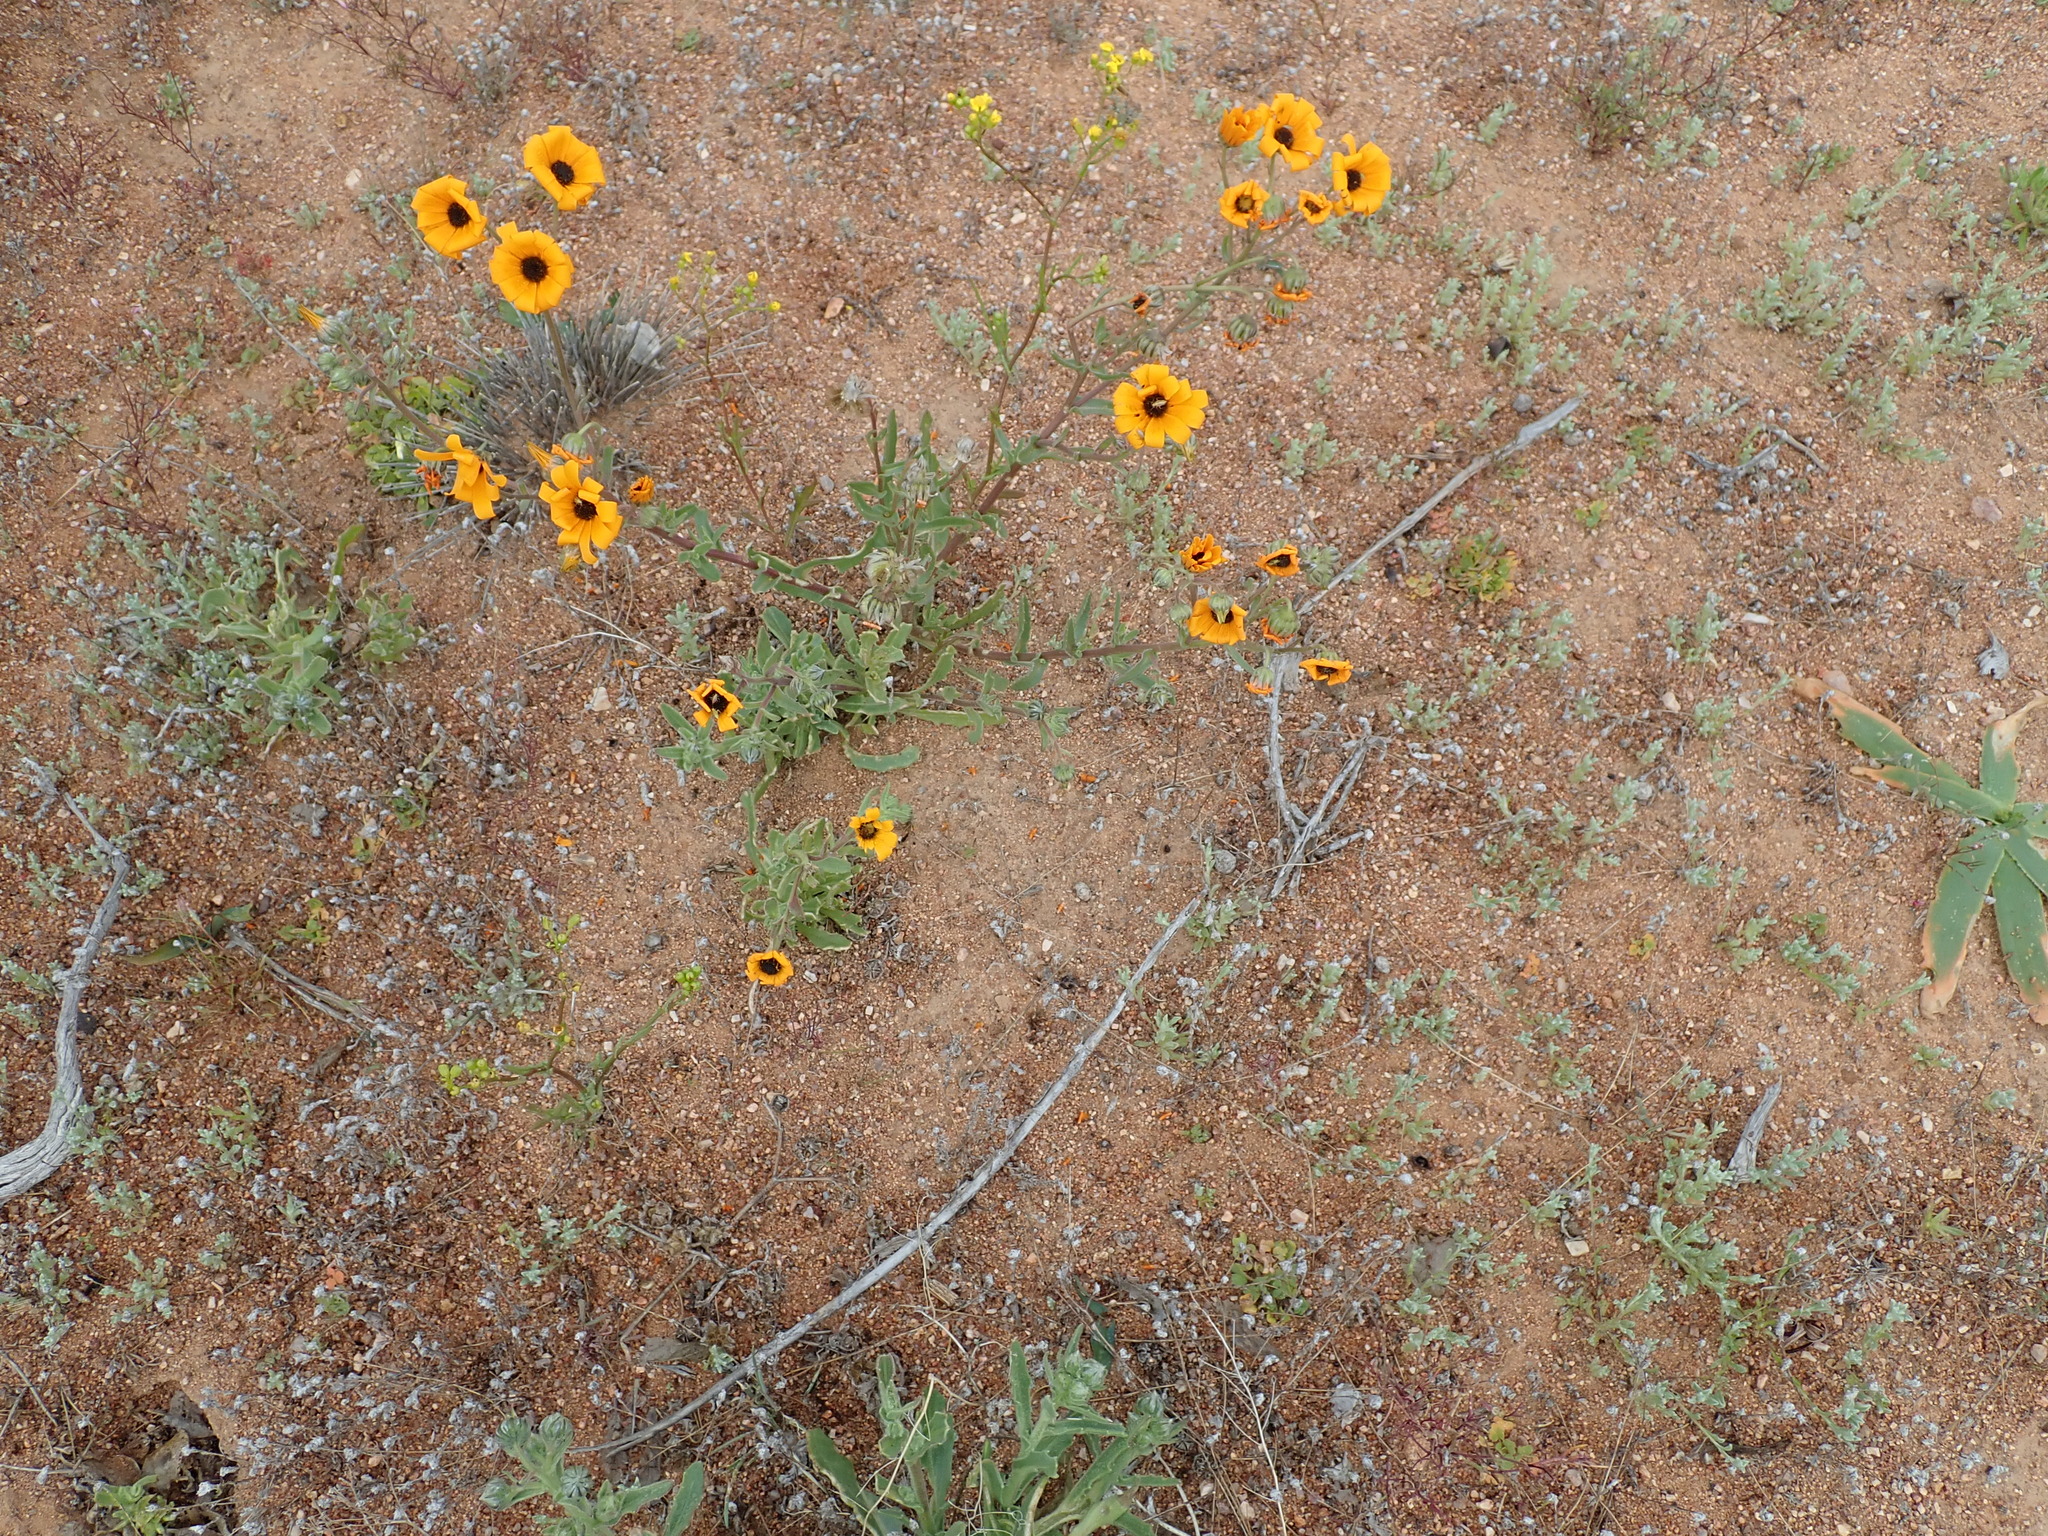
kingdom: Plantae
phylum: Tracheophyta
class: Magnoliopsida
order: Asterales
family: Asteraceae
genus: Osteospermum
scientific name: Osteospermum hyoseroides
